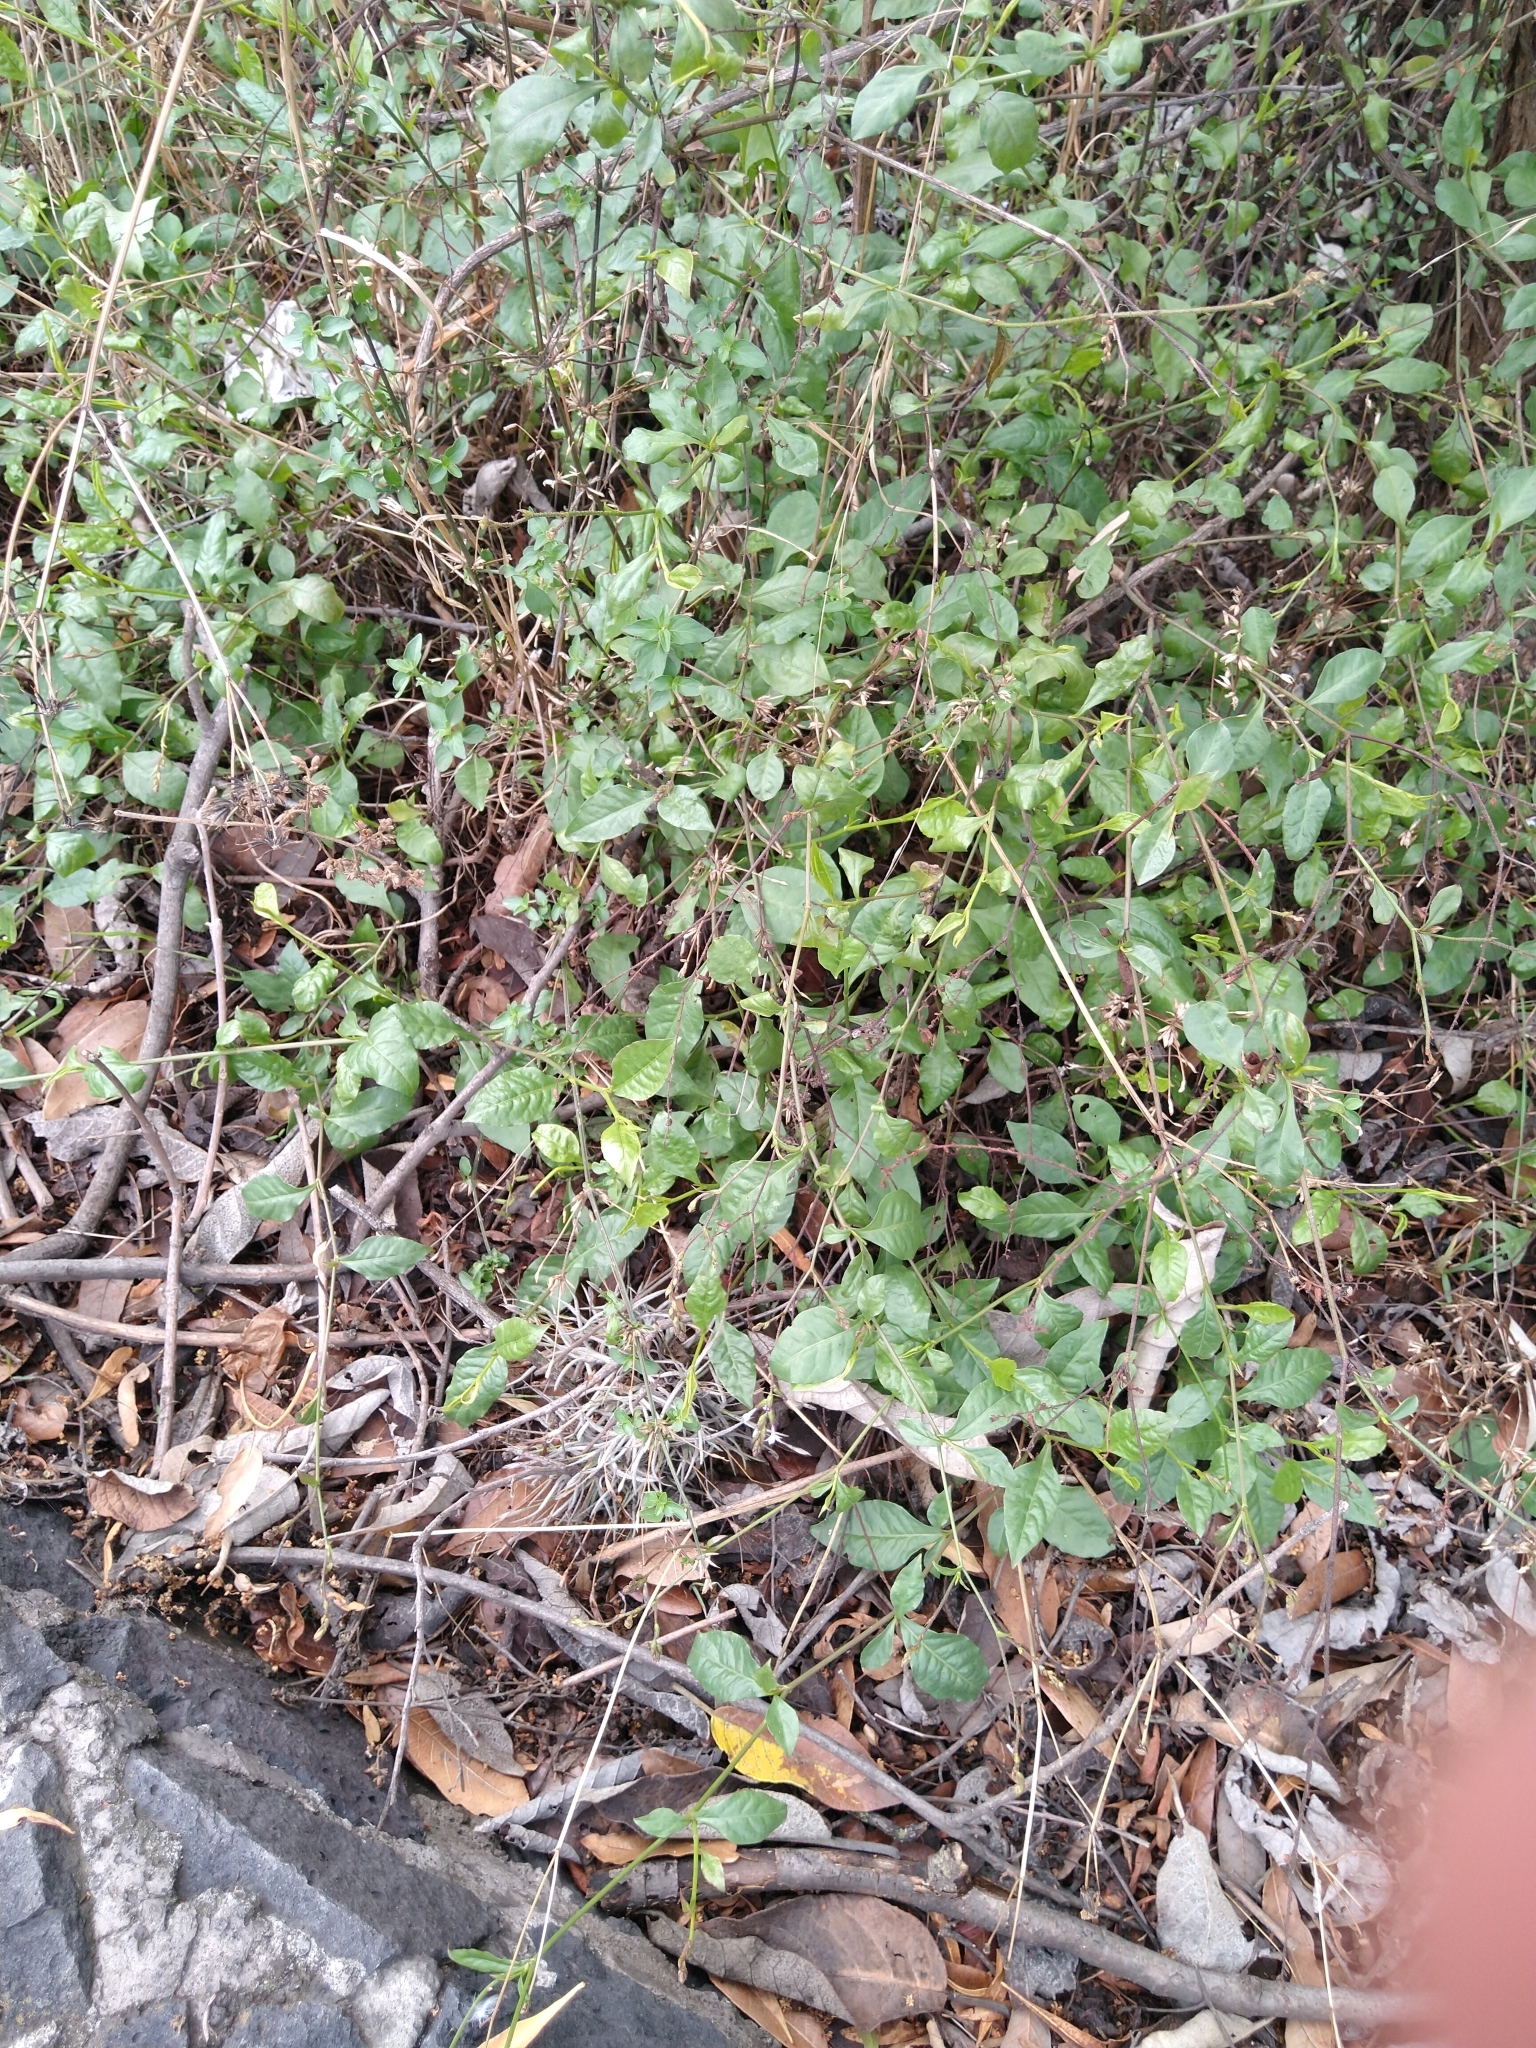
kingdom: Plantae
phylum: Tracheophyta
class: Magnoliopsida
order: Caryophyllales
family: Plumbaginaceae
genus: Plumbago
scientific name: Plumbago pulchella
